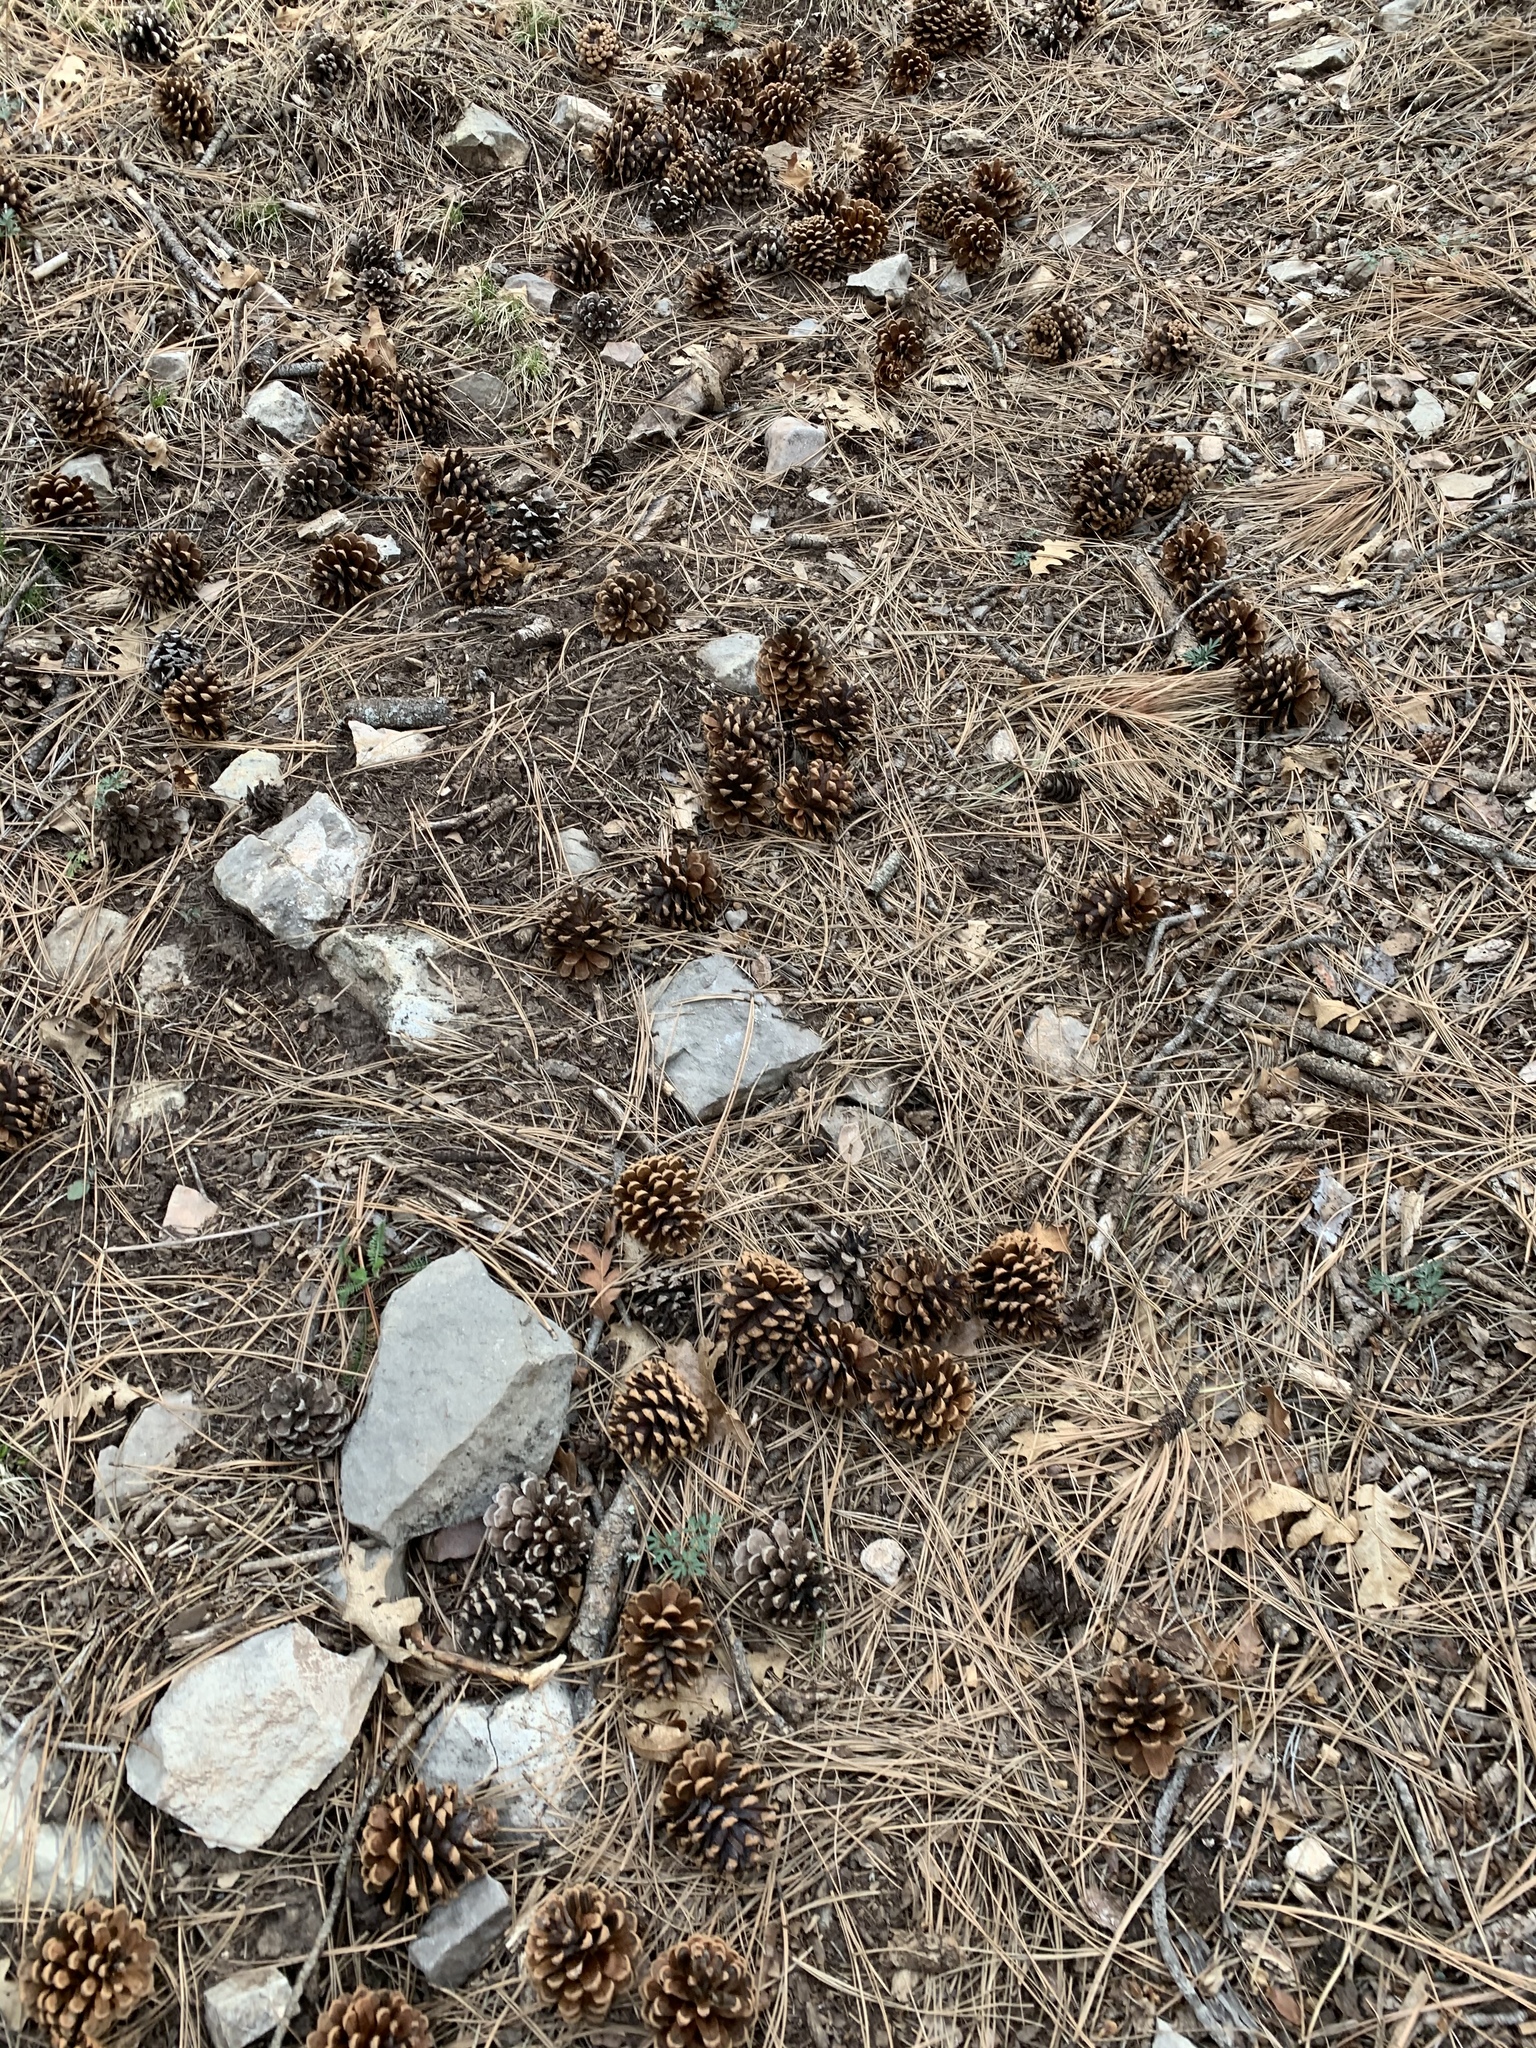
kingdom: Plantae
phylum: Tracheophyta
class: Pinopsida
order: Pinales
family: Pinaceae
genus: Pinus
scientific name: Pinus ponderosa
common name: Western yellow-pine
